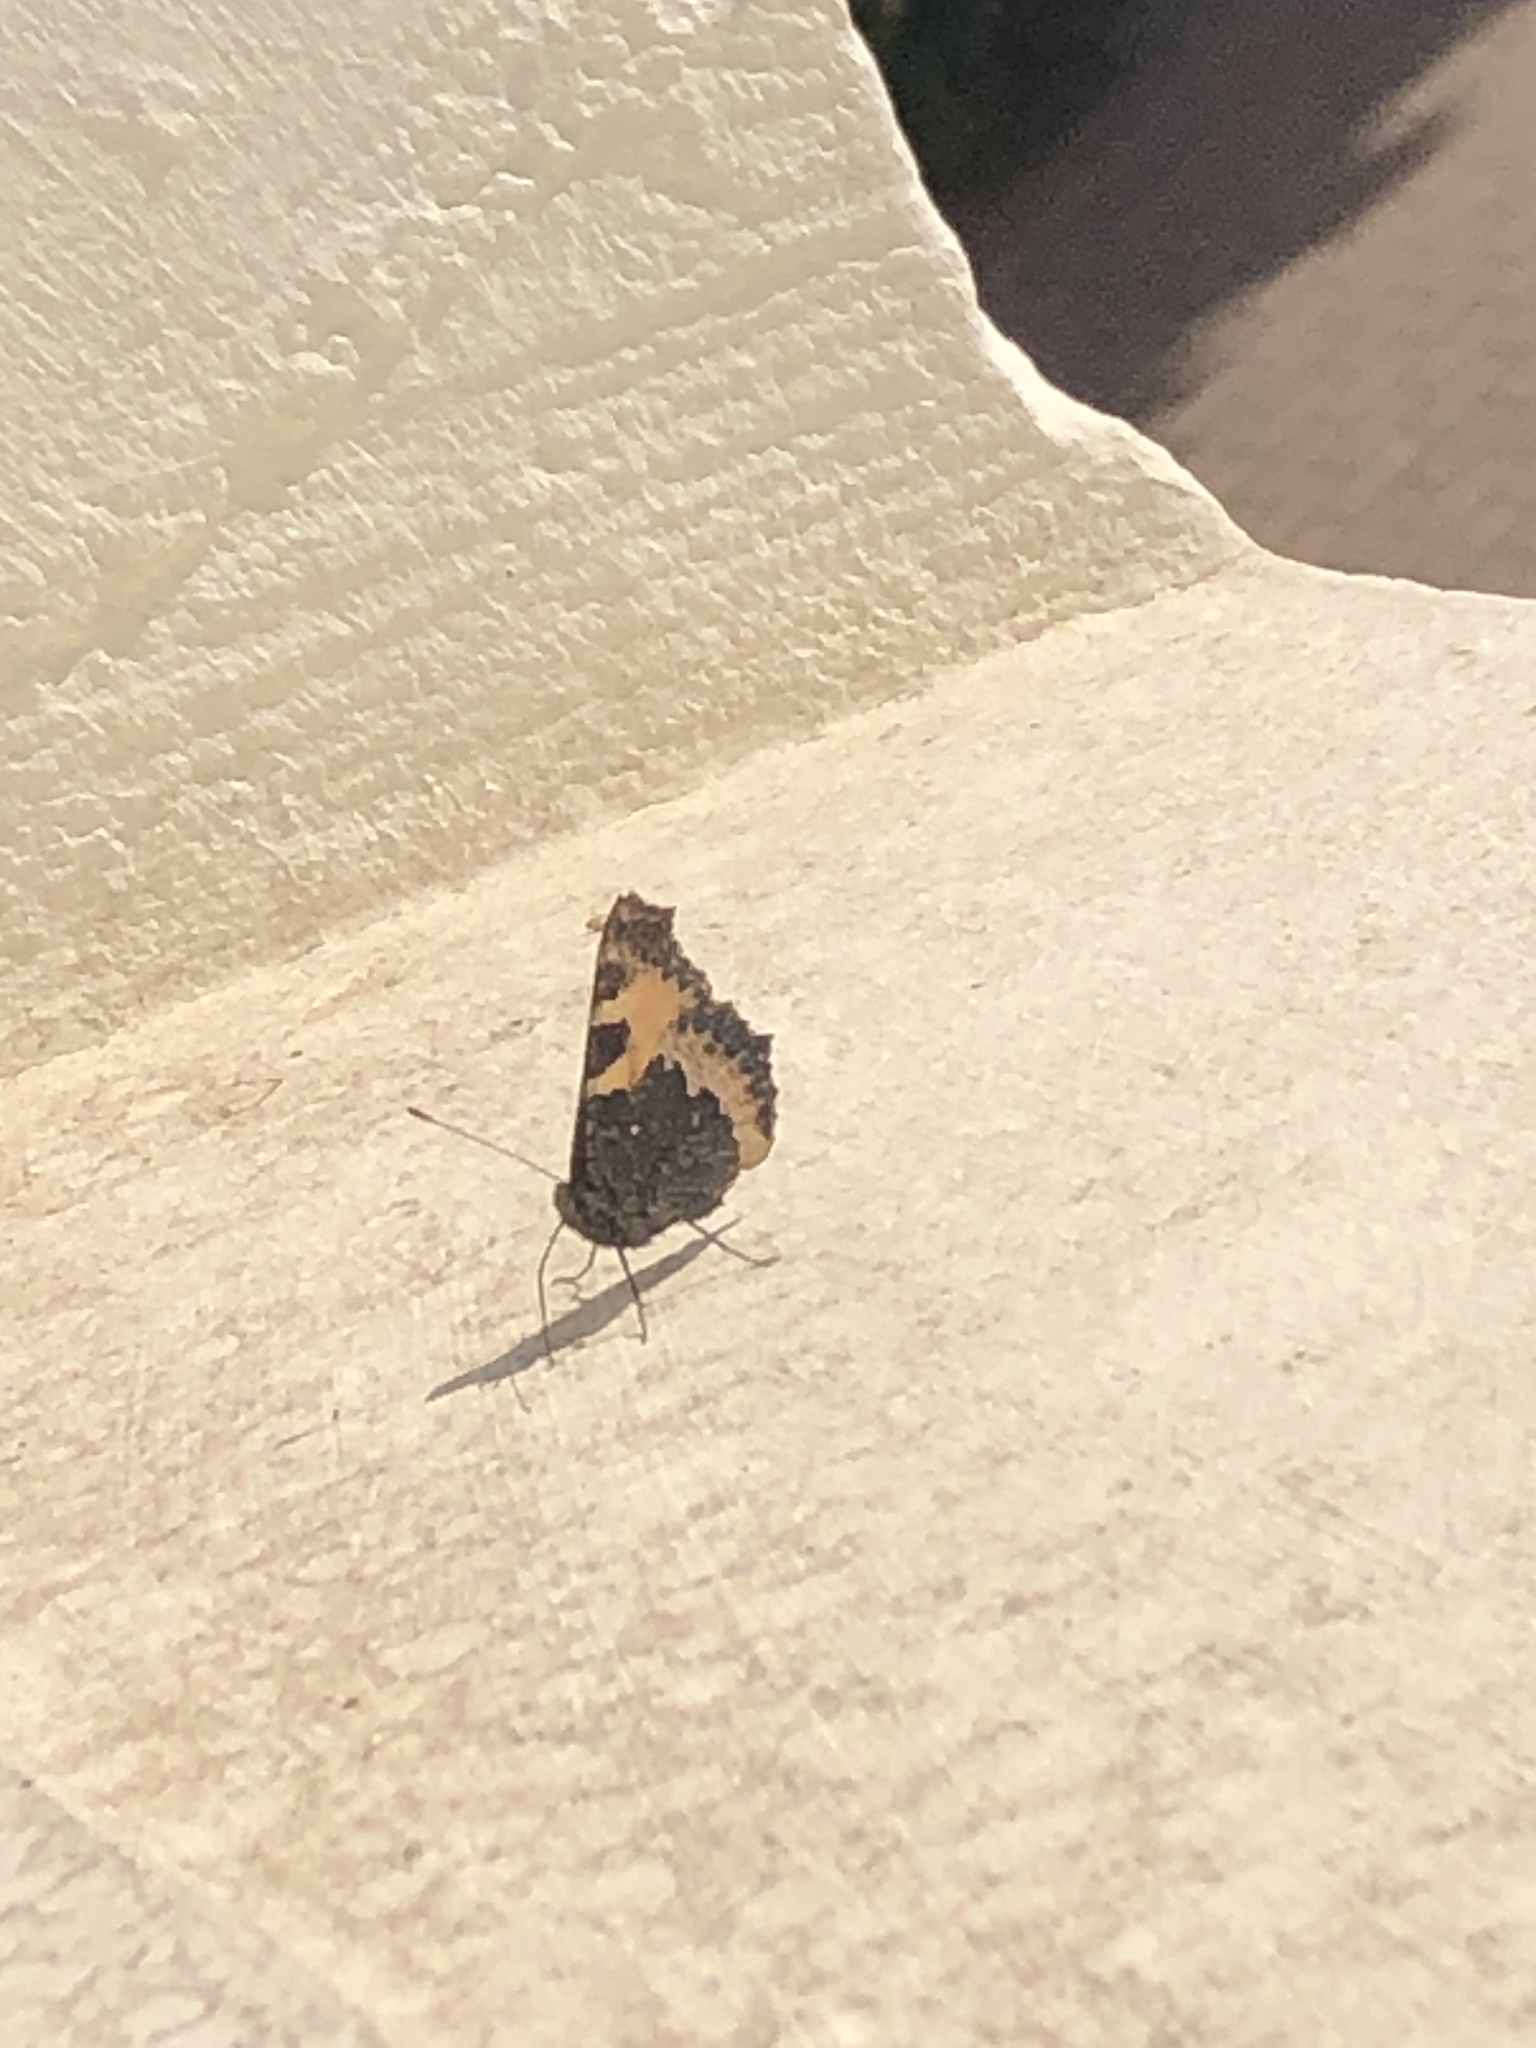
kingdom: Animalia
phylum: Arthropoda
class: Insecta
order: Lepidoptera
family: Nymphalidae
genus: Aglais
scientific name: Aglais urticae
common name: Small tortoiseshell
